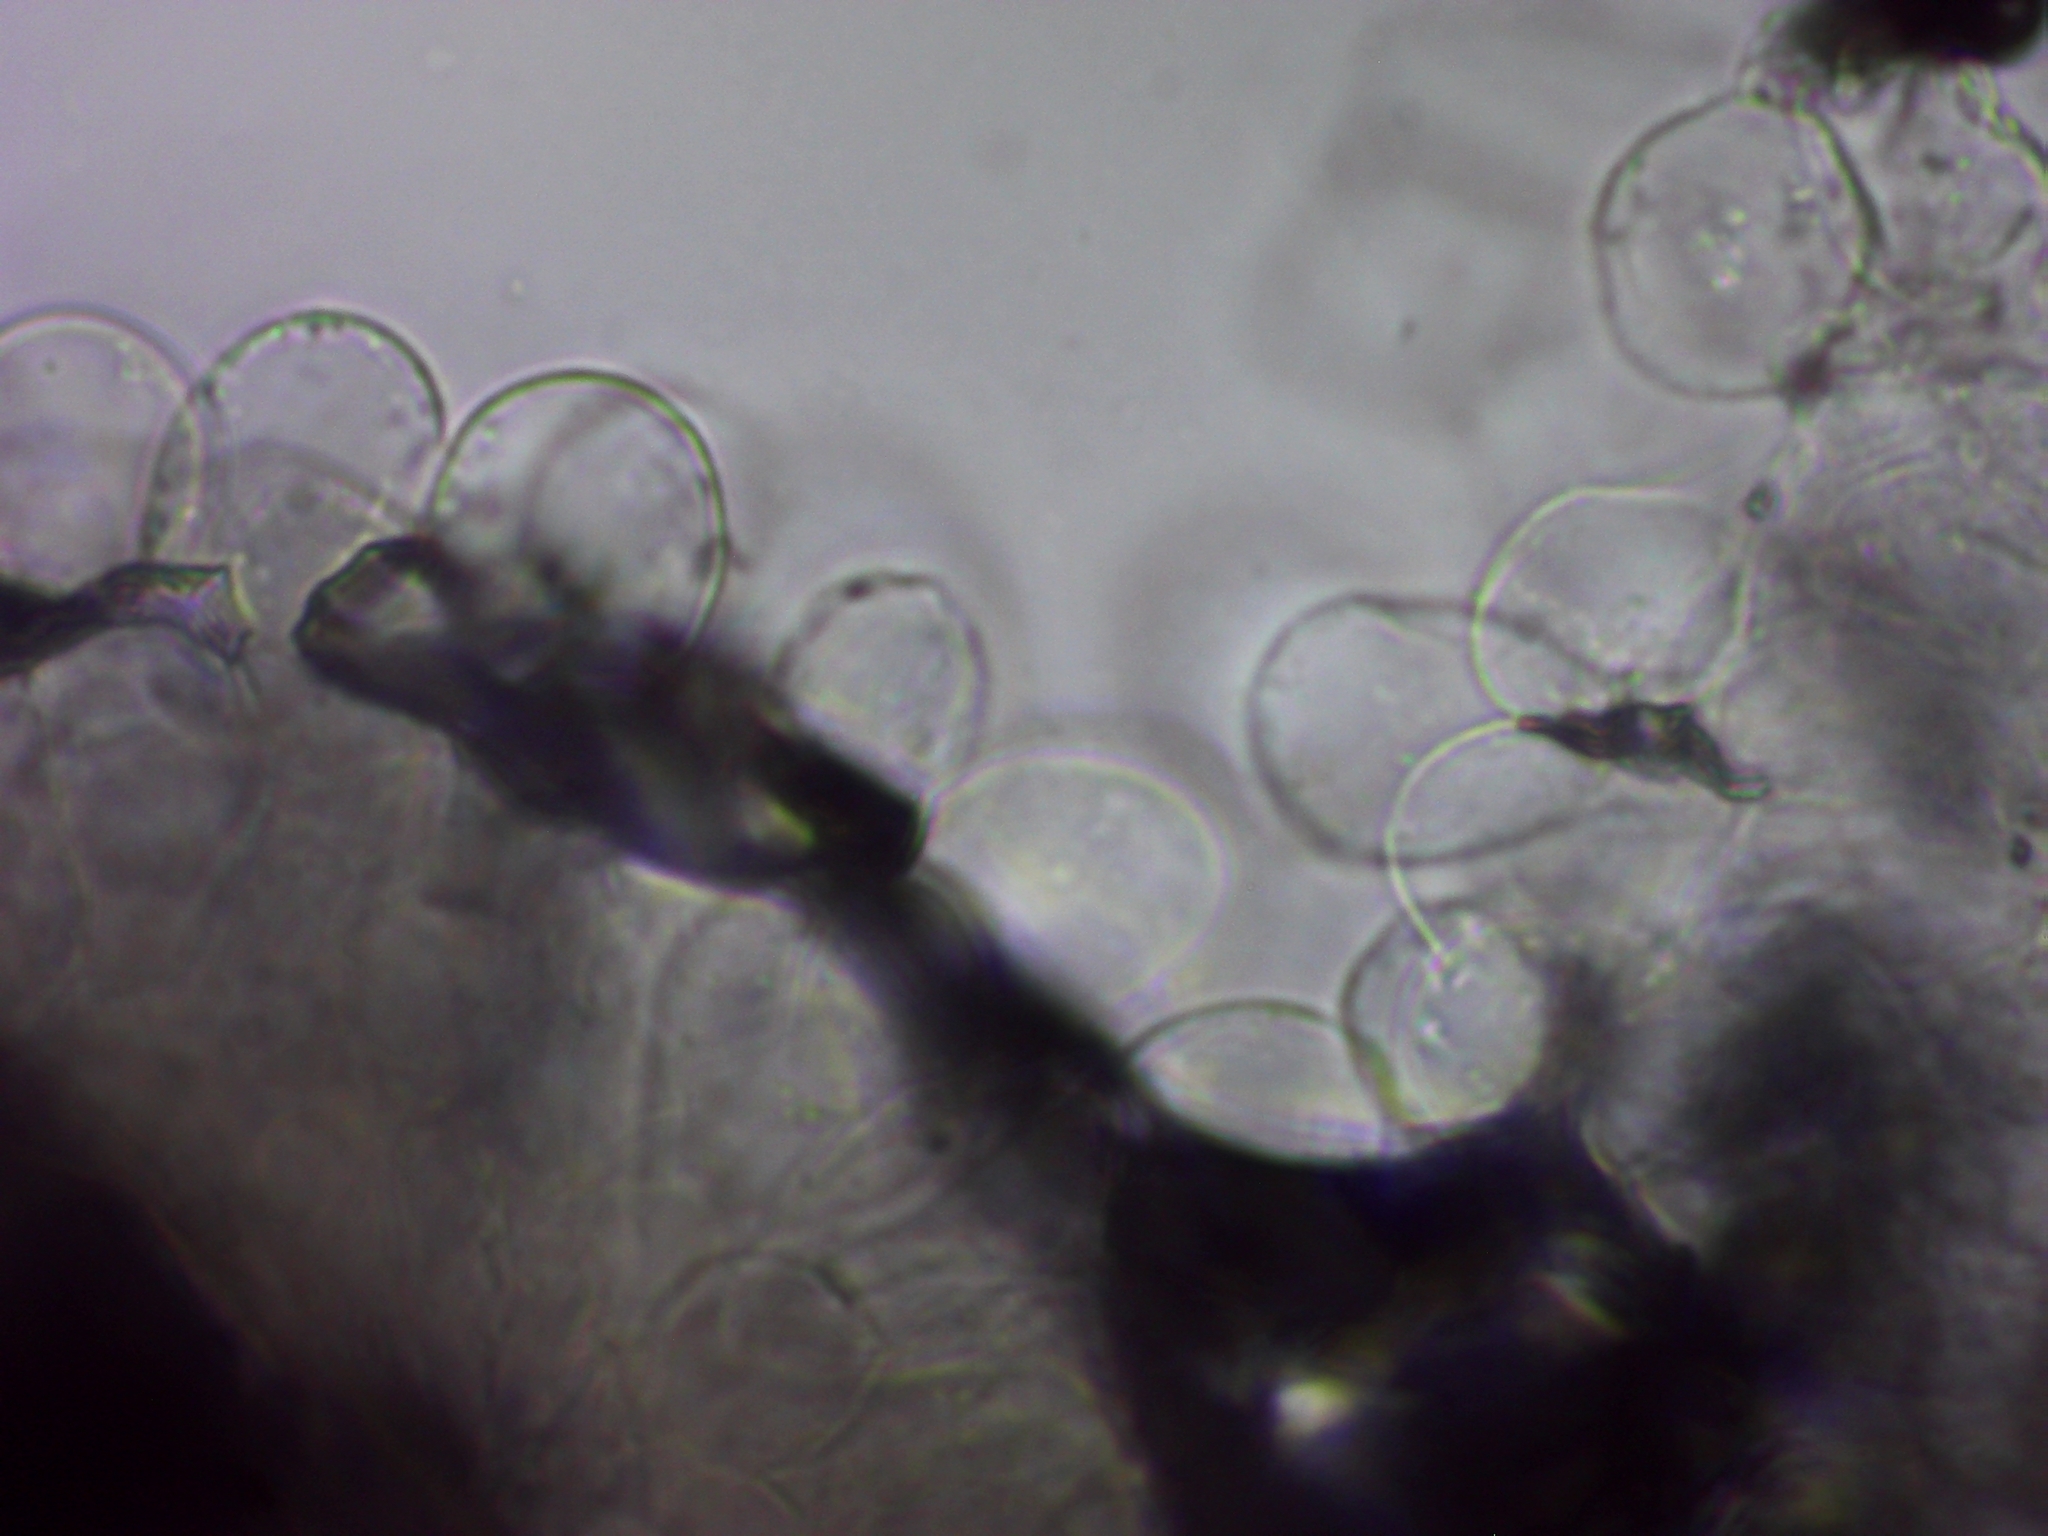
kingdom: Fungi
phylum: Basidiomycota
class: Agaricomycetes
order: Agaricales
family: Agaricaceae
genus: Coprinus
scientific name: Coprinus comatus
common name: Lawyer's wig
